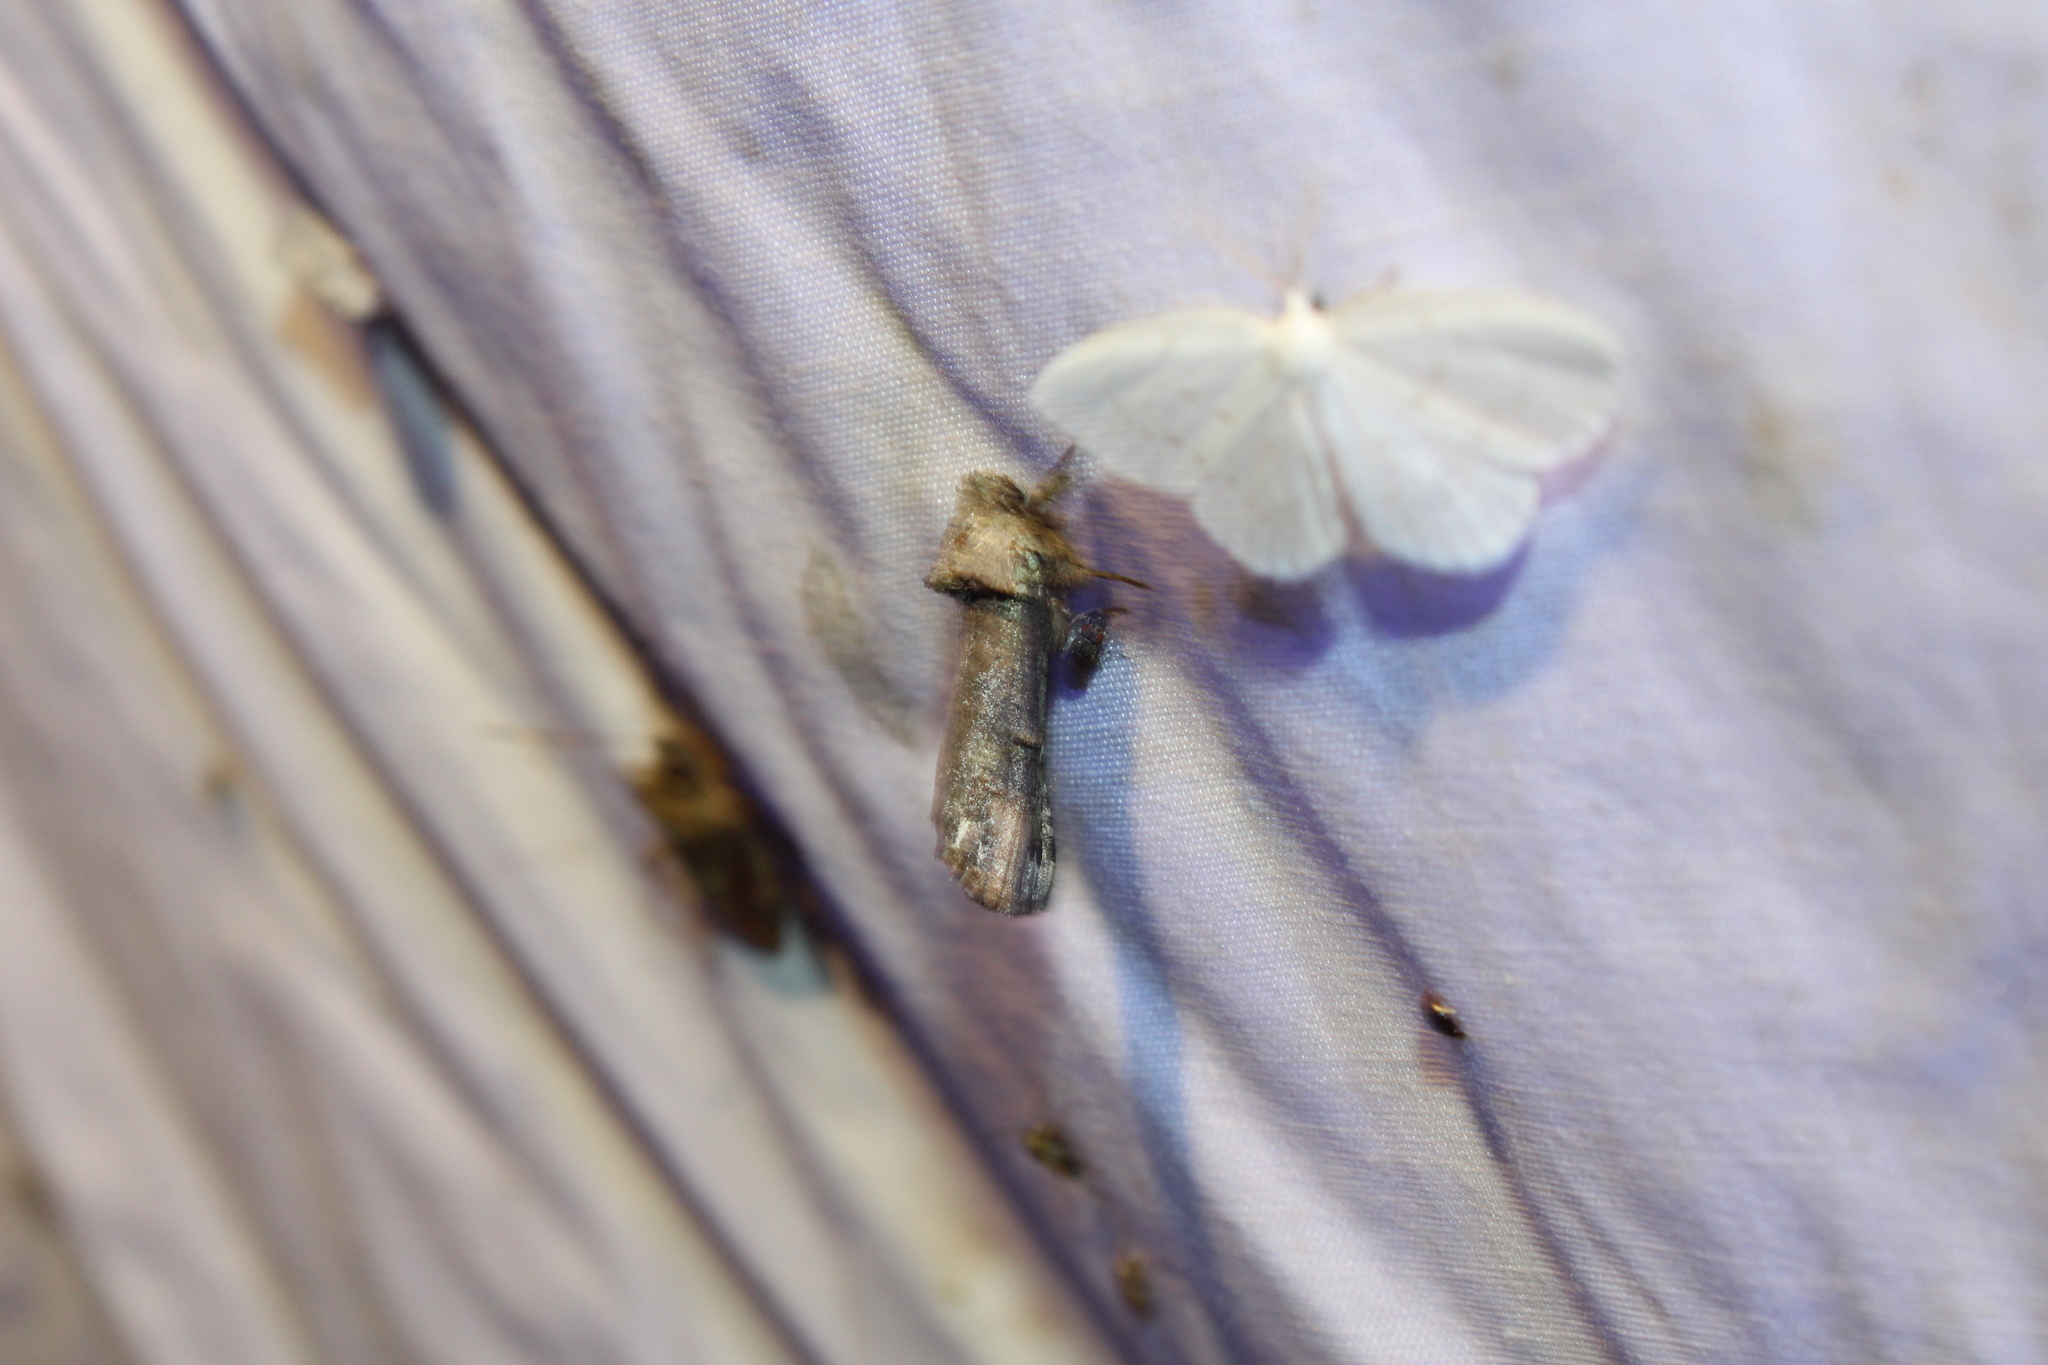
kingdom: Animalia
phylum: Arthropoda
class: Insecta
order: Lepidoptera
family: Notodontidae
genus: Schizura
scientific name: Schizura
